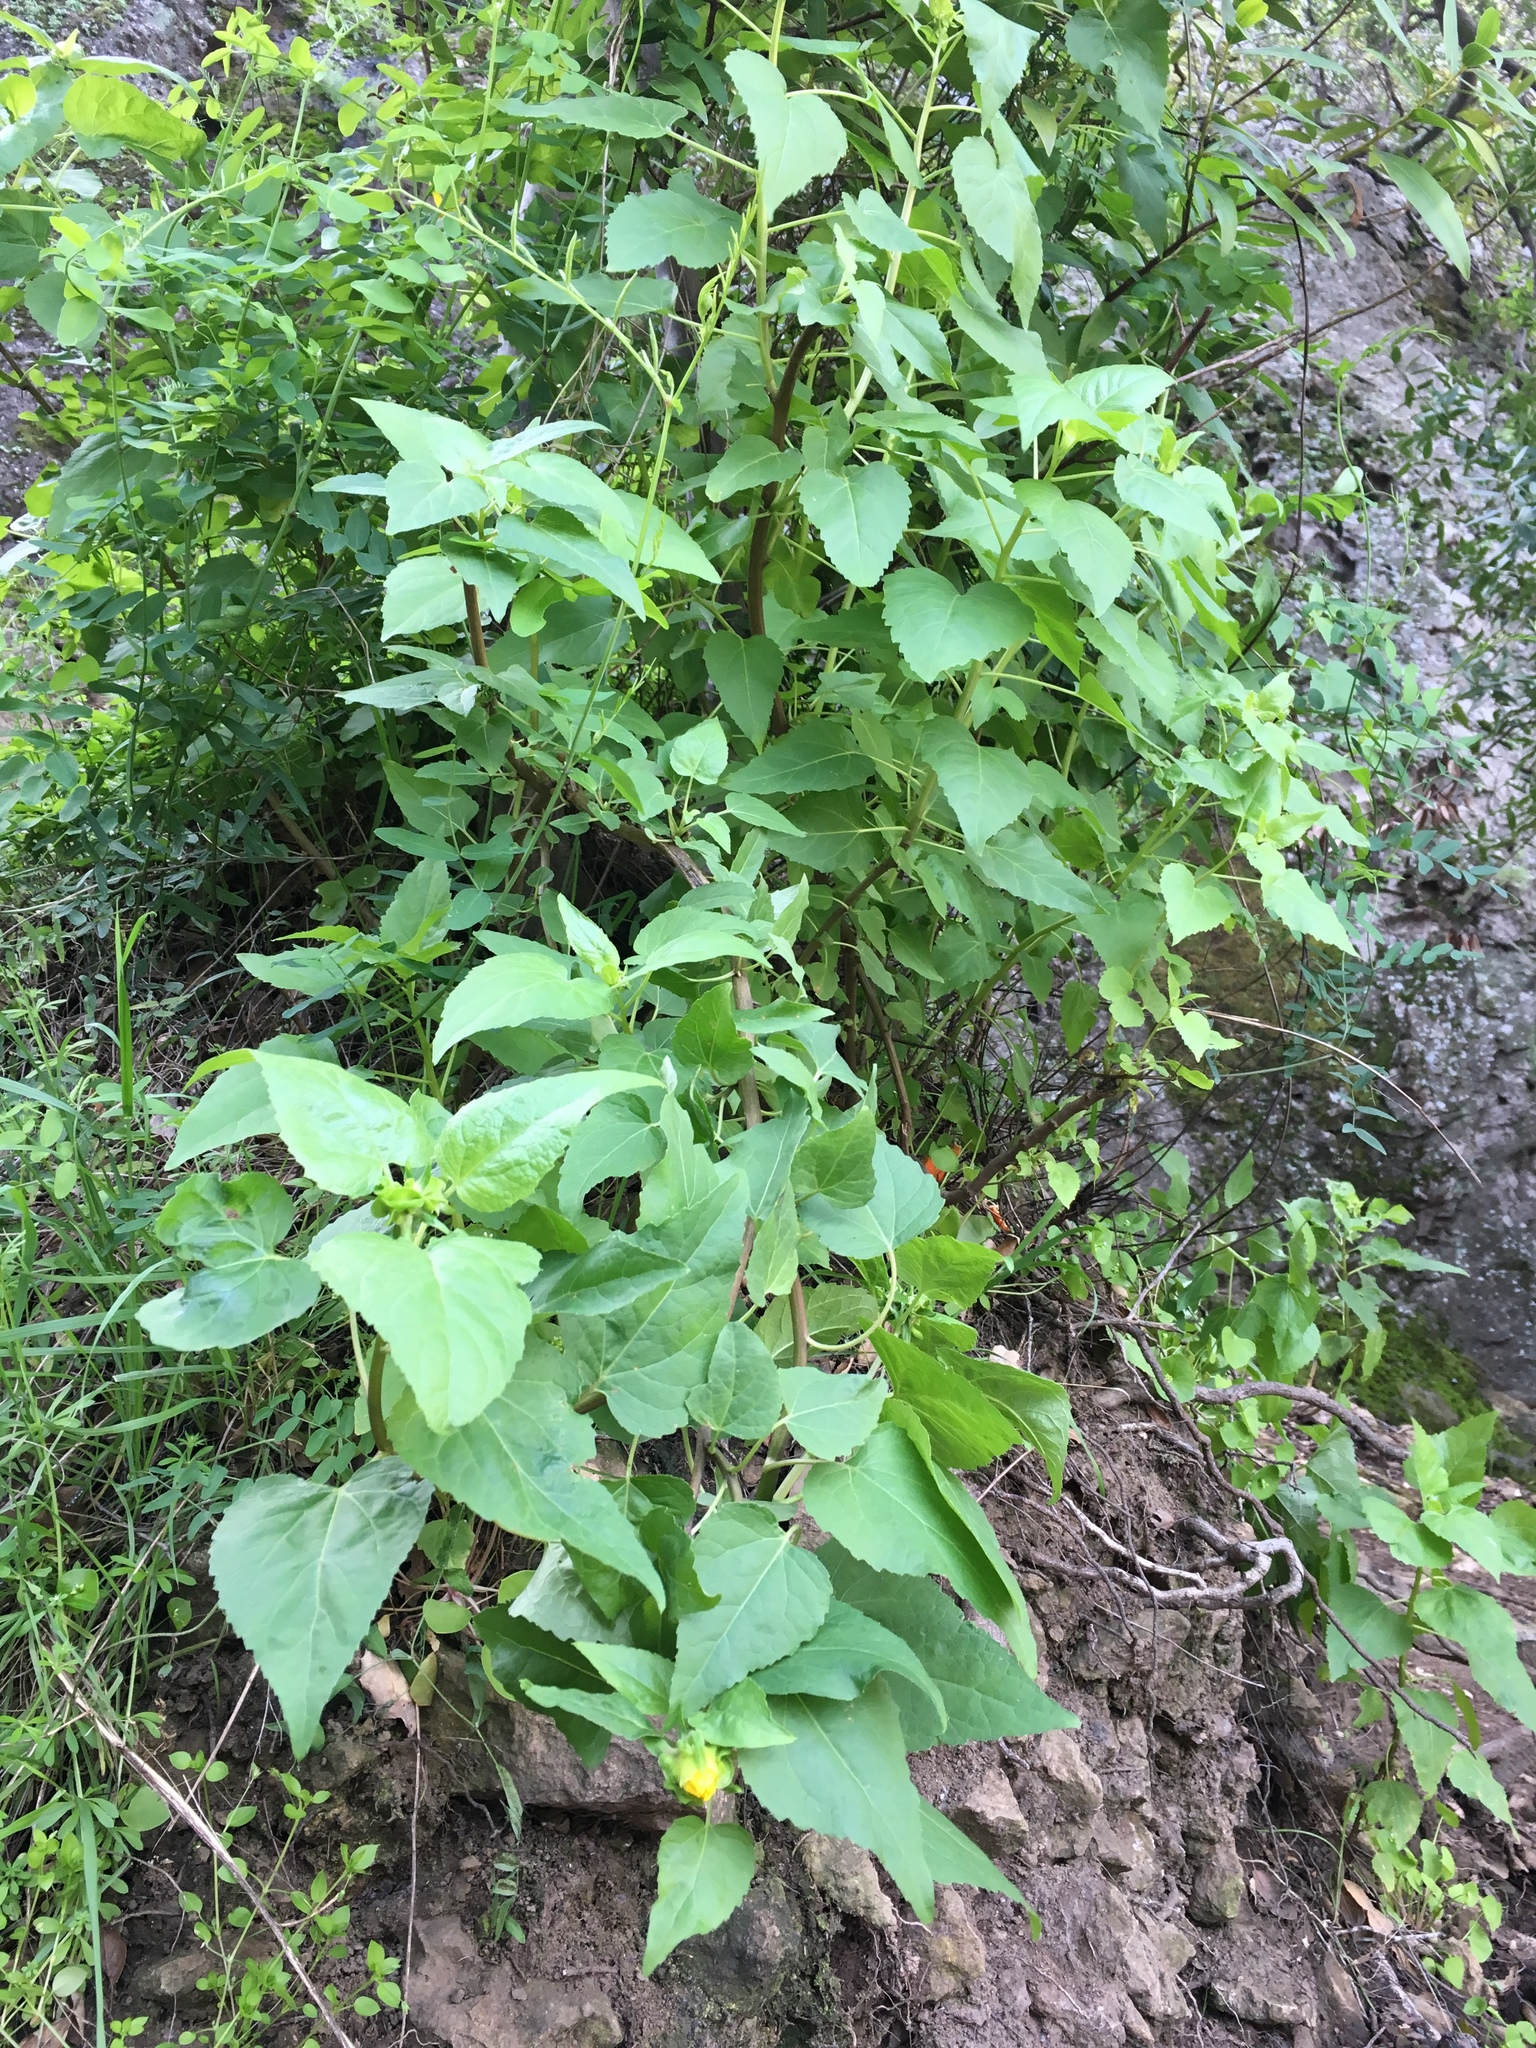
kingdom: Plantae
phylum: Tracheophyta
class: Magnoliopsida
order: Asterales
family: Asteraceae
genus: Venegasia
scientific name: Venegasia carpesioides
